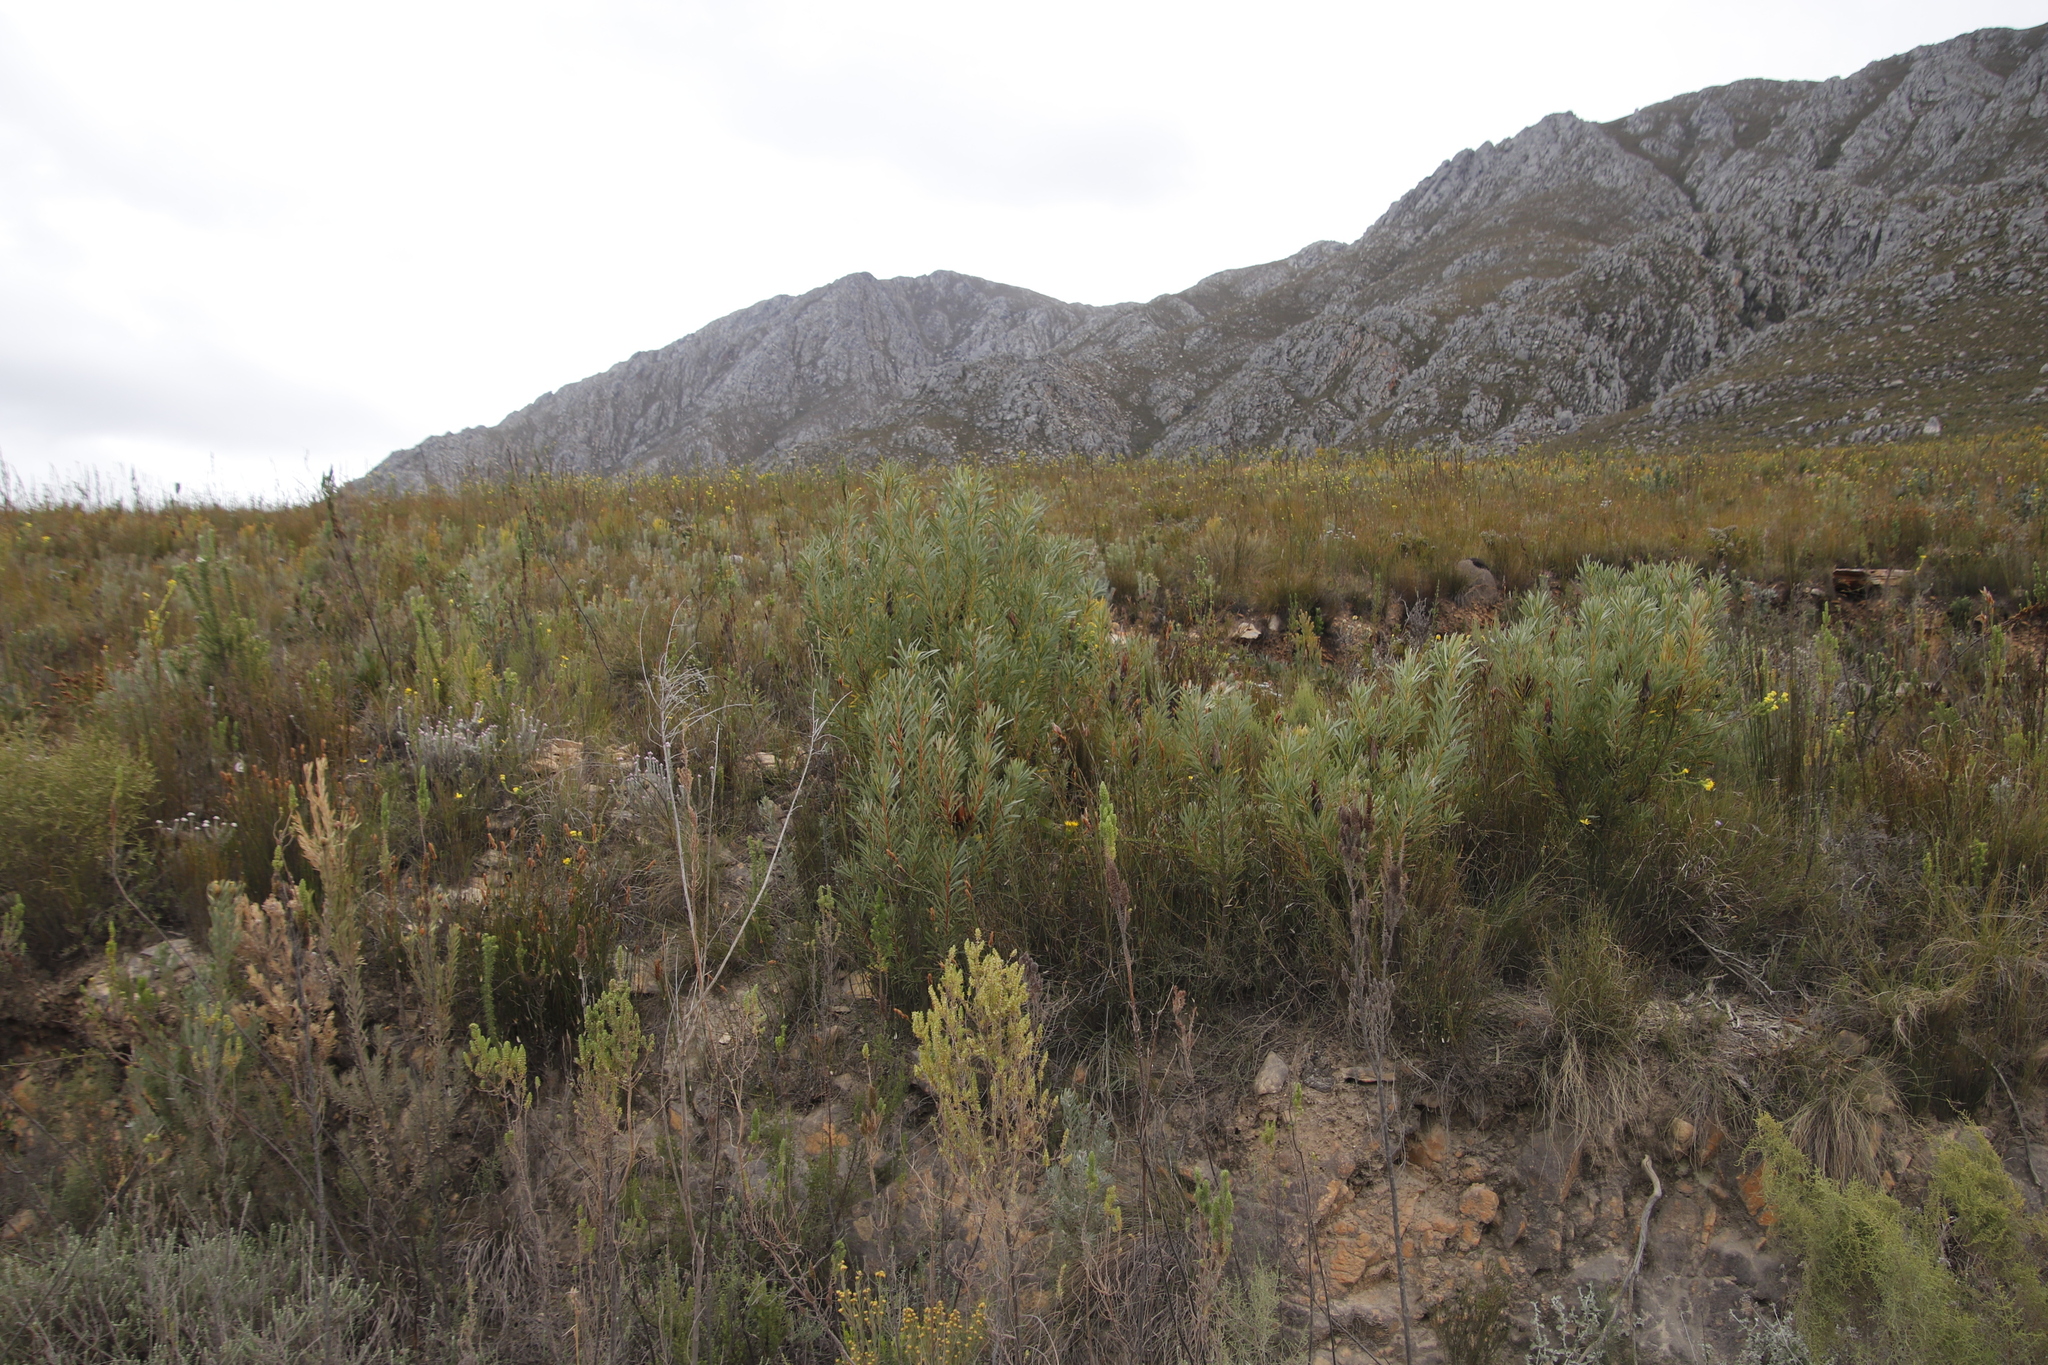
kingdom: Plantae
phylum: Tracheophyta
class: Magnoliopsida
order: Proteales
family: Proteaceae
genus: Protea
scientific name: Protea repens
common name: Sugarbush
